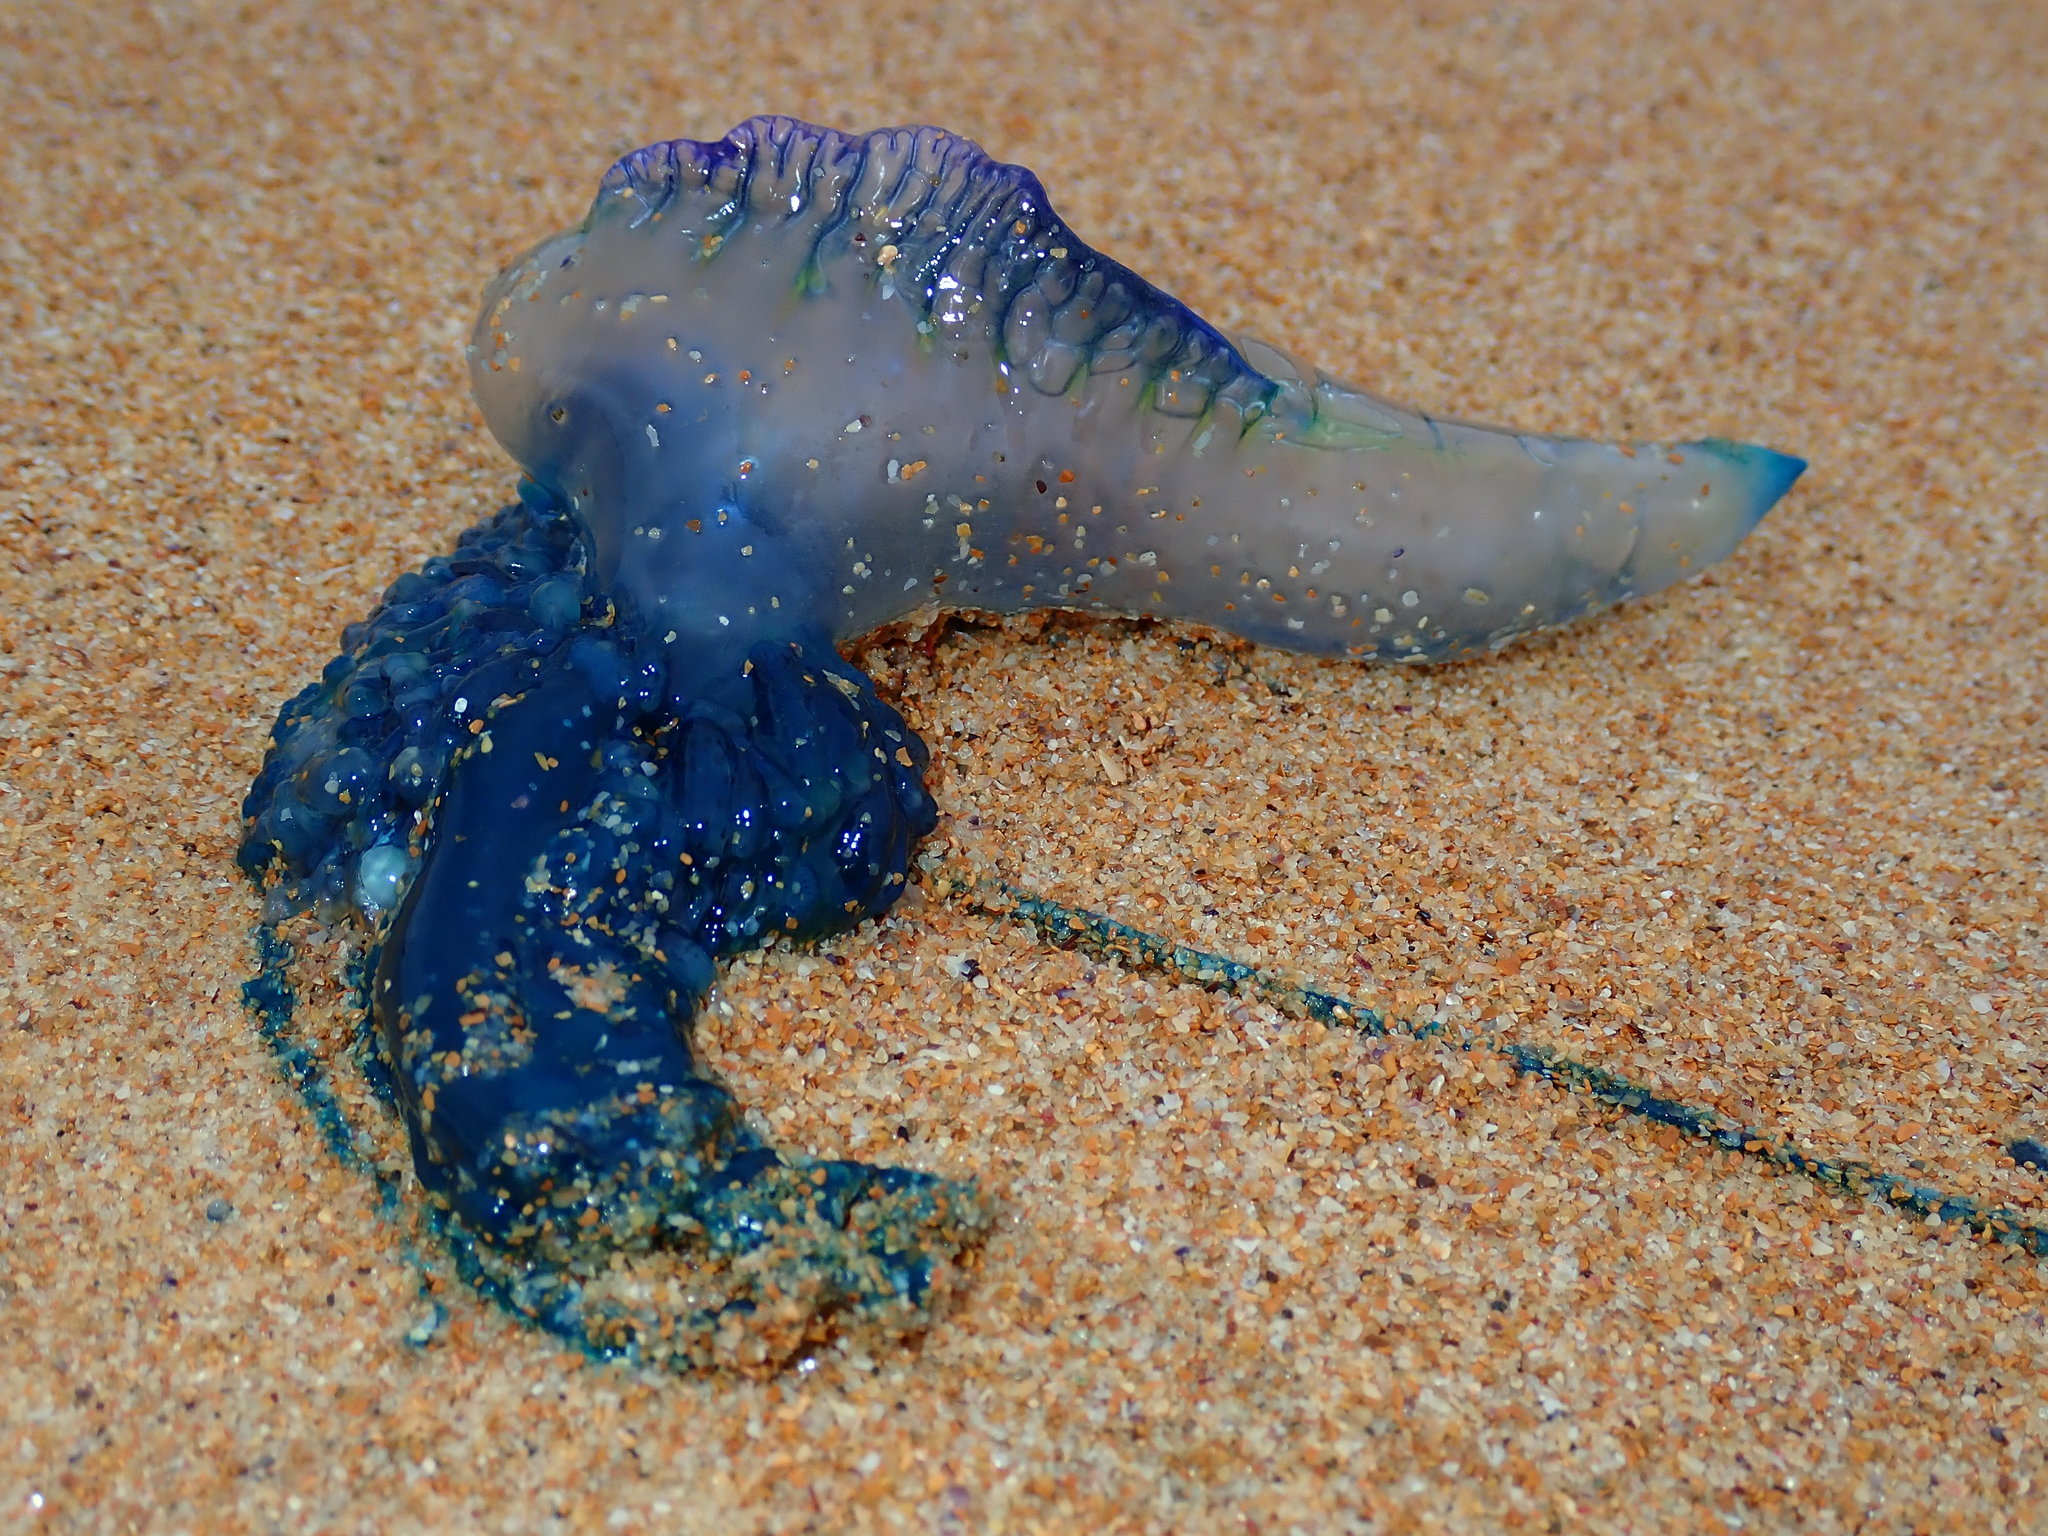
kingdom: Animalia
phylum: Cnidaria
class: Hydrozoa
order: Siphonophorae
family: Physaliidae
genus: Physalia
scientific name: Physalia physalis
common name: Portuguese man-of-war
